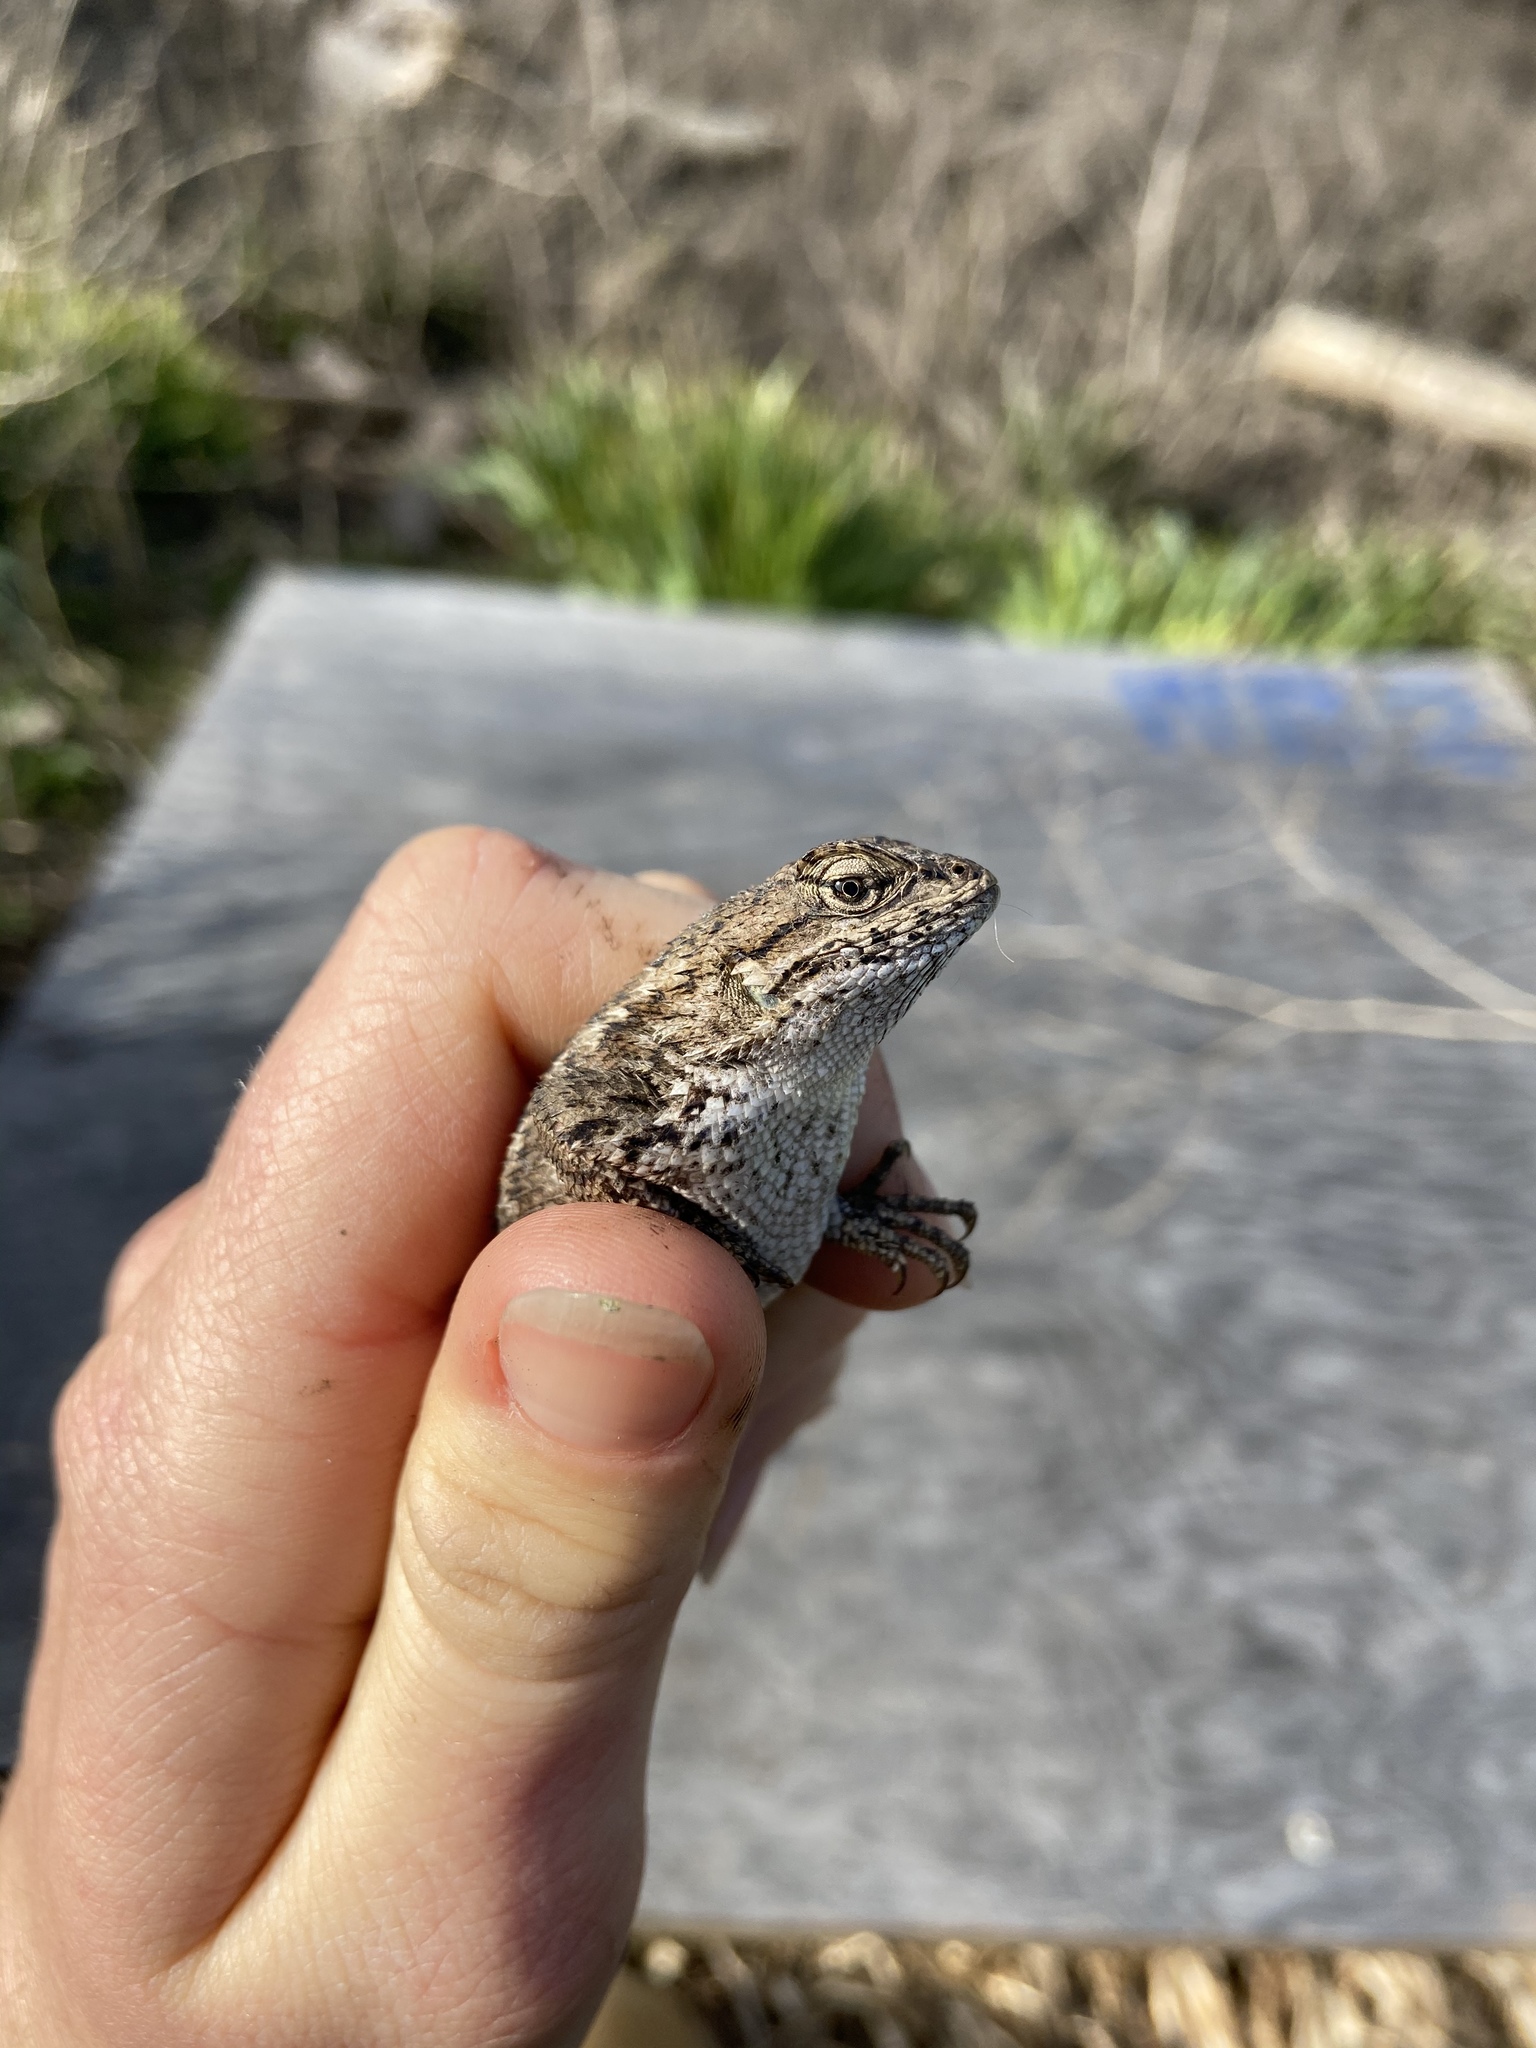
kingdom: Animalia
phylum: Chordata
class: Squamata
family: Phrynosomatidae
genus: Sceloporus
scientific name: Sceloporus occidentalis
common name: Western fence lizard
